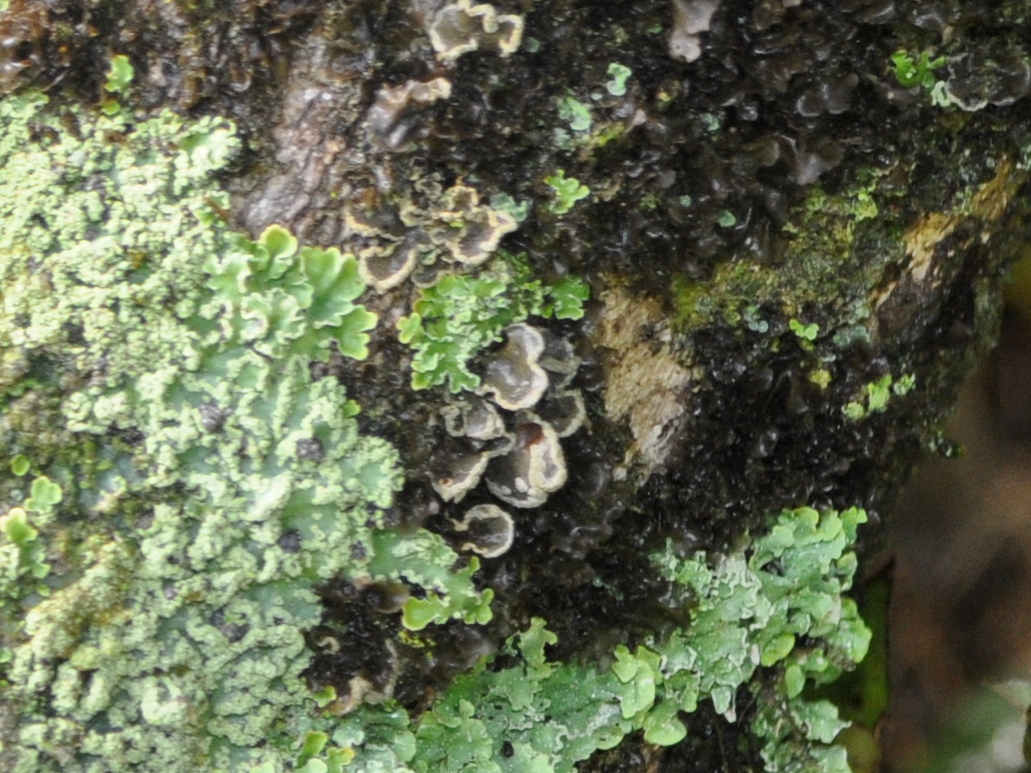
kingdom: Fungi
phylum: Ascomycota
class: Lecanoromycetes
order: Peltigerales
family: Lobariaceae
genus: Sticta
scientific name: Sticta limbata
